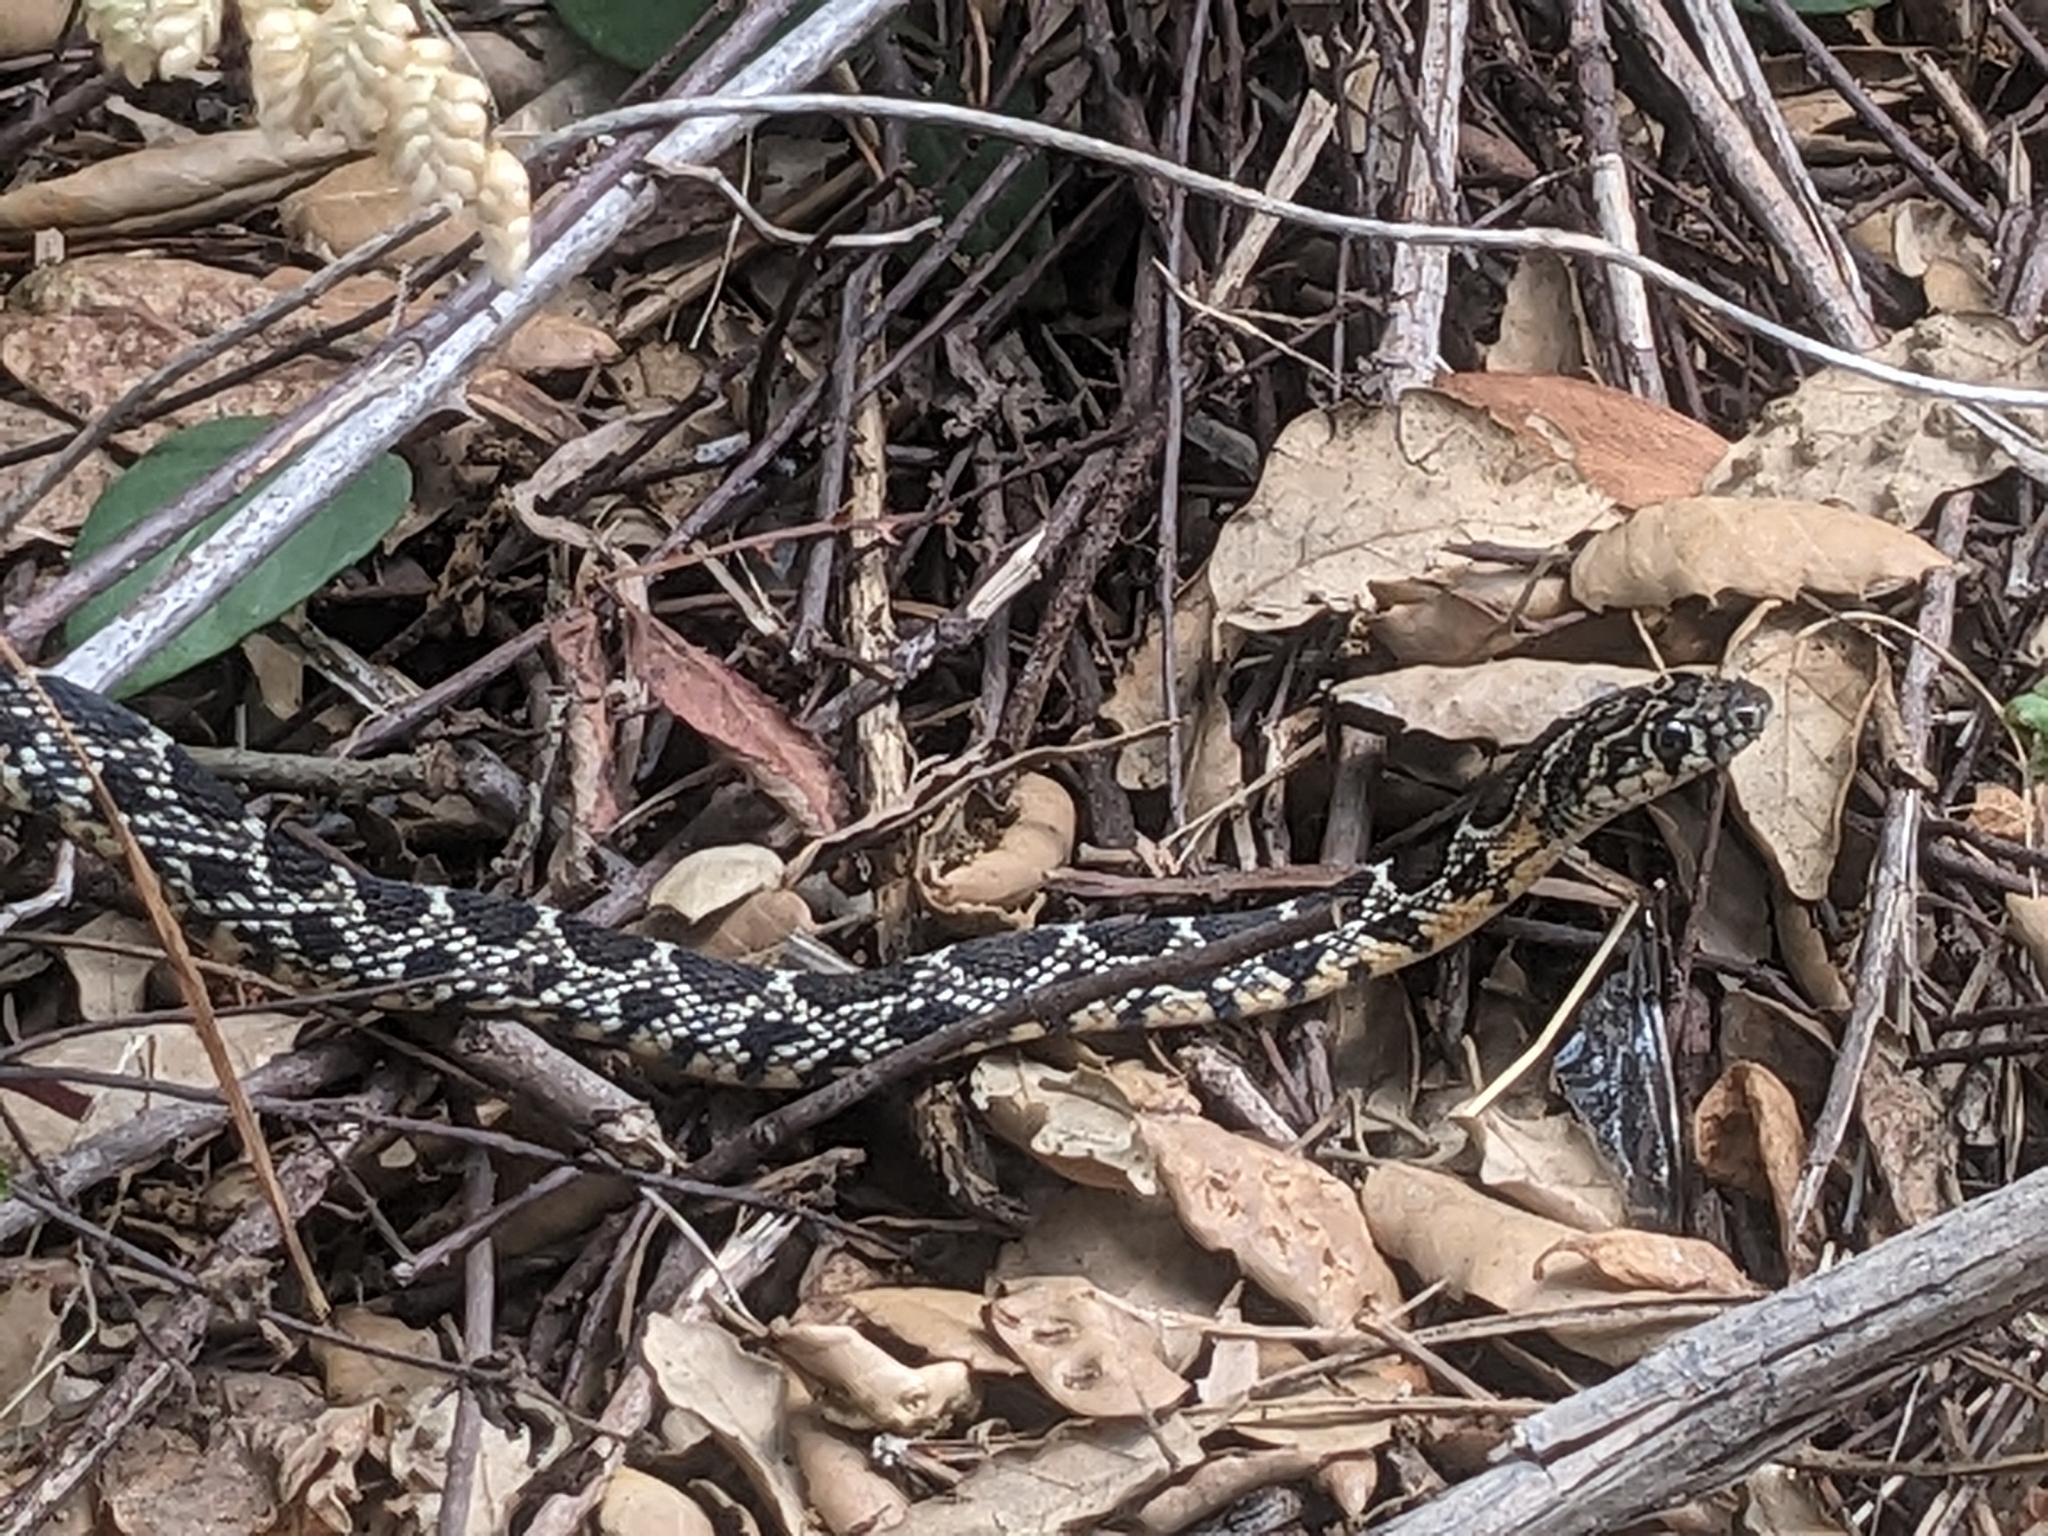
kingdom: Animalia
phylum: Chordata
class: Squamata
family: Colubridae
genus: Hemorrhois
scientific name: Hemorrhois hippocrepis
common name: Horseshoe whip snake
